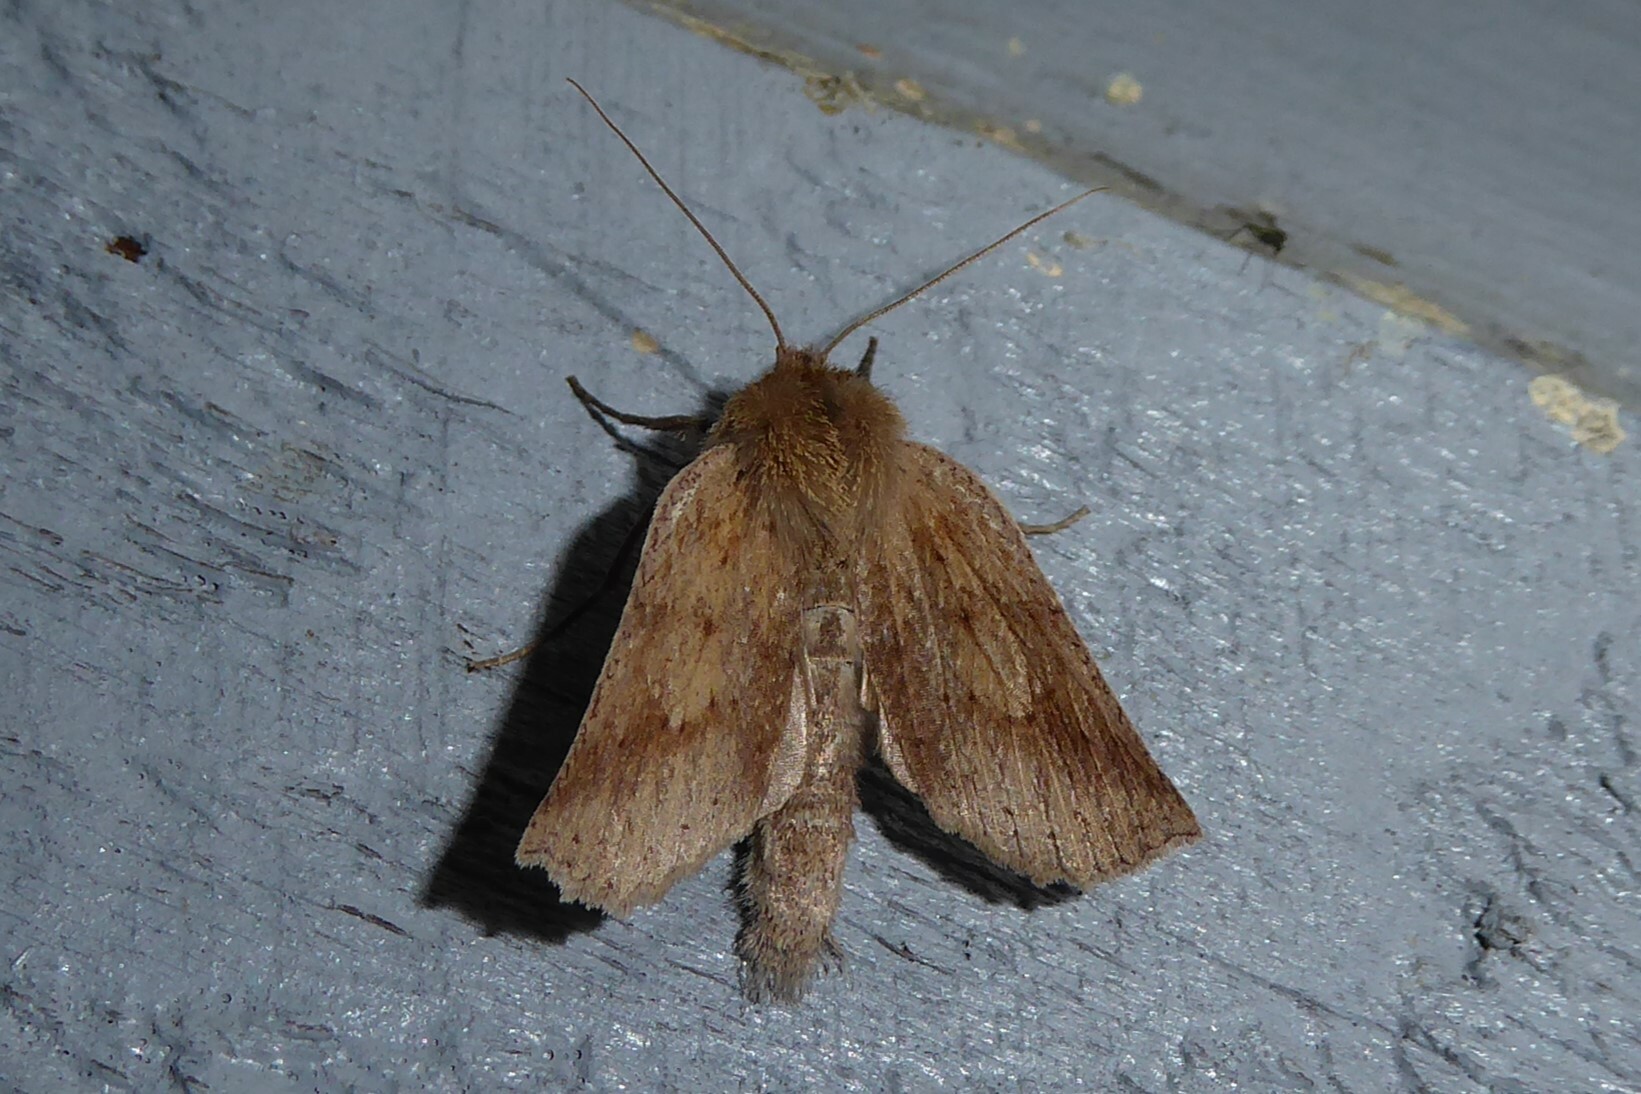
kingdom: Animalia
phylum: Arthropoda
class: Insecta
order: Lepidoptera
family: Geometridae
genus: Declana
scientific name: Declana leptomera
